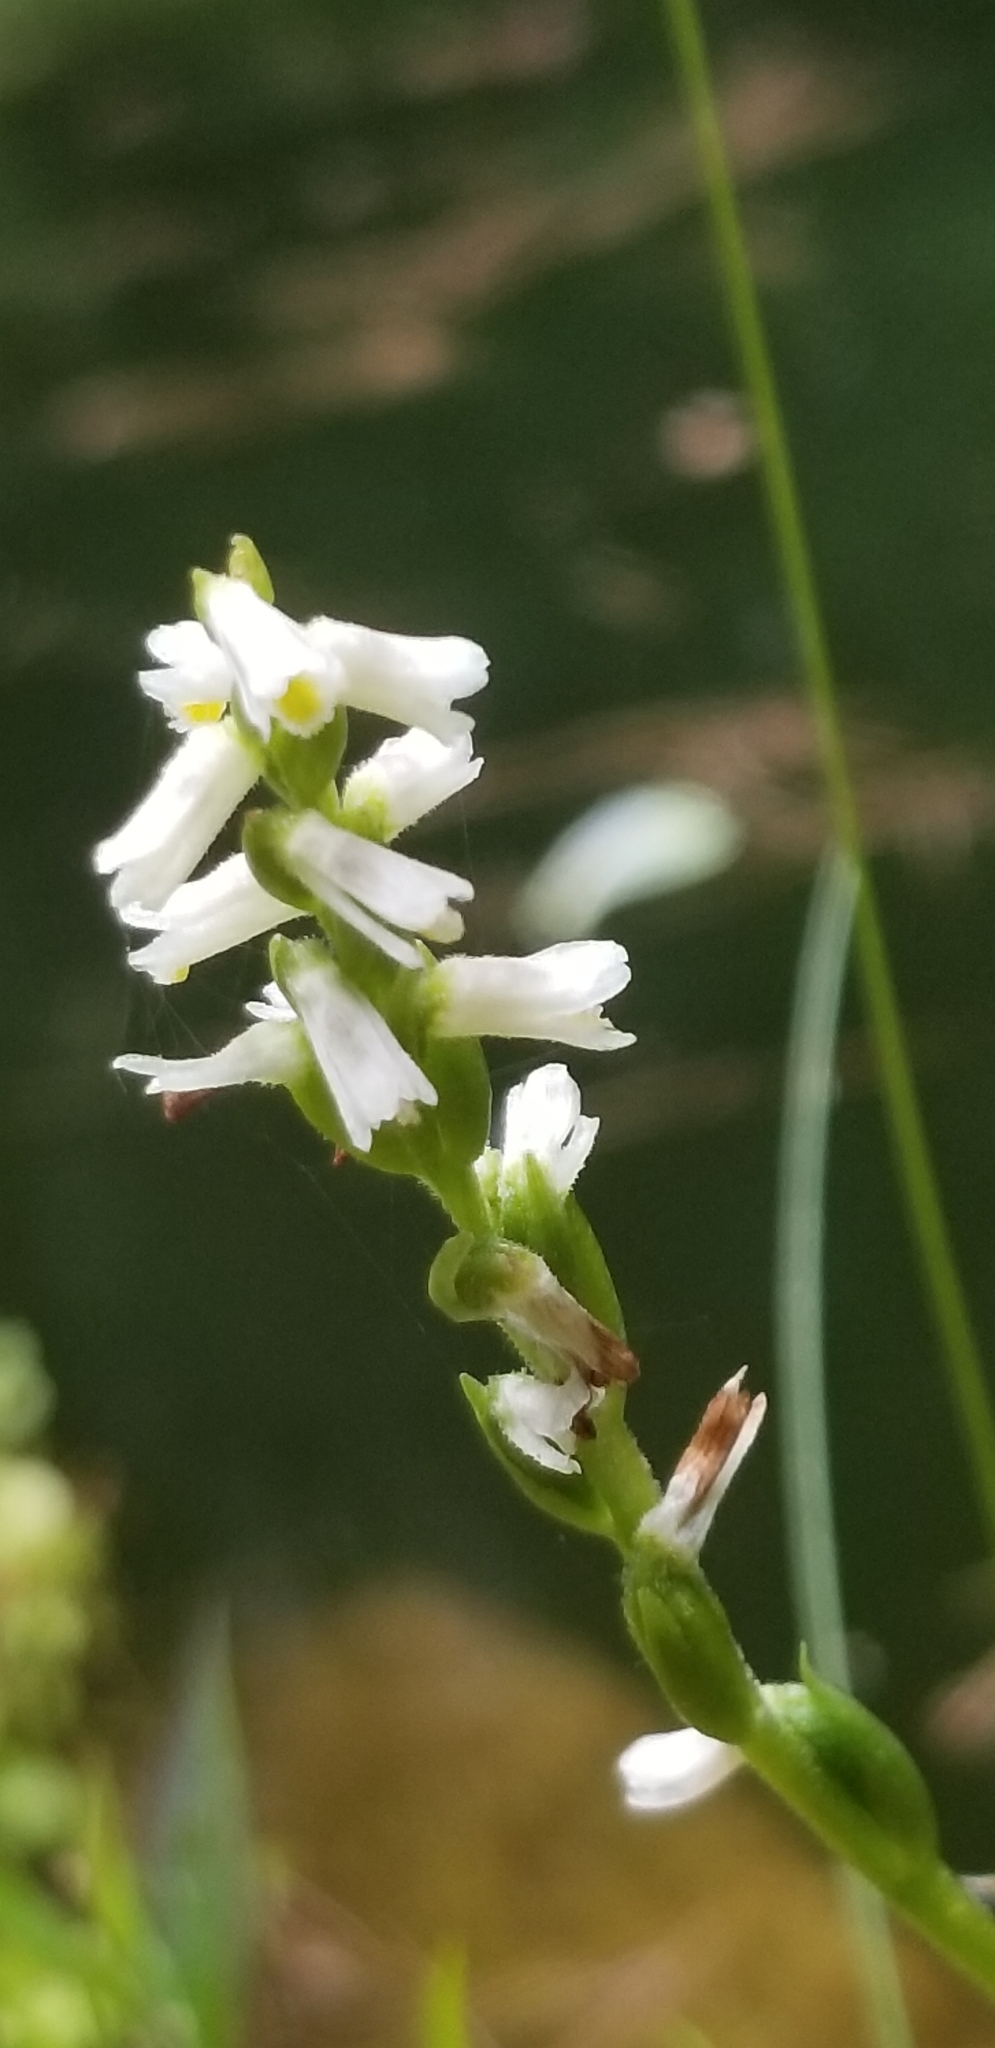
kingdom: Plantae
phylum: Tracheophyta
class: Liliopsida
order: Asparagales
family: Orchidaceae
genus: Spiranthes
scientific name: Spiranthes lucida
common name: Broad-leaved ladies'-tresses
